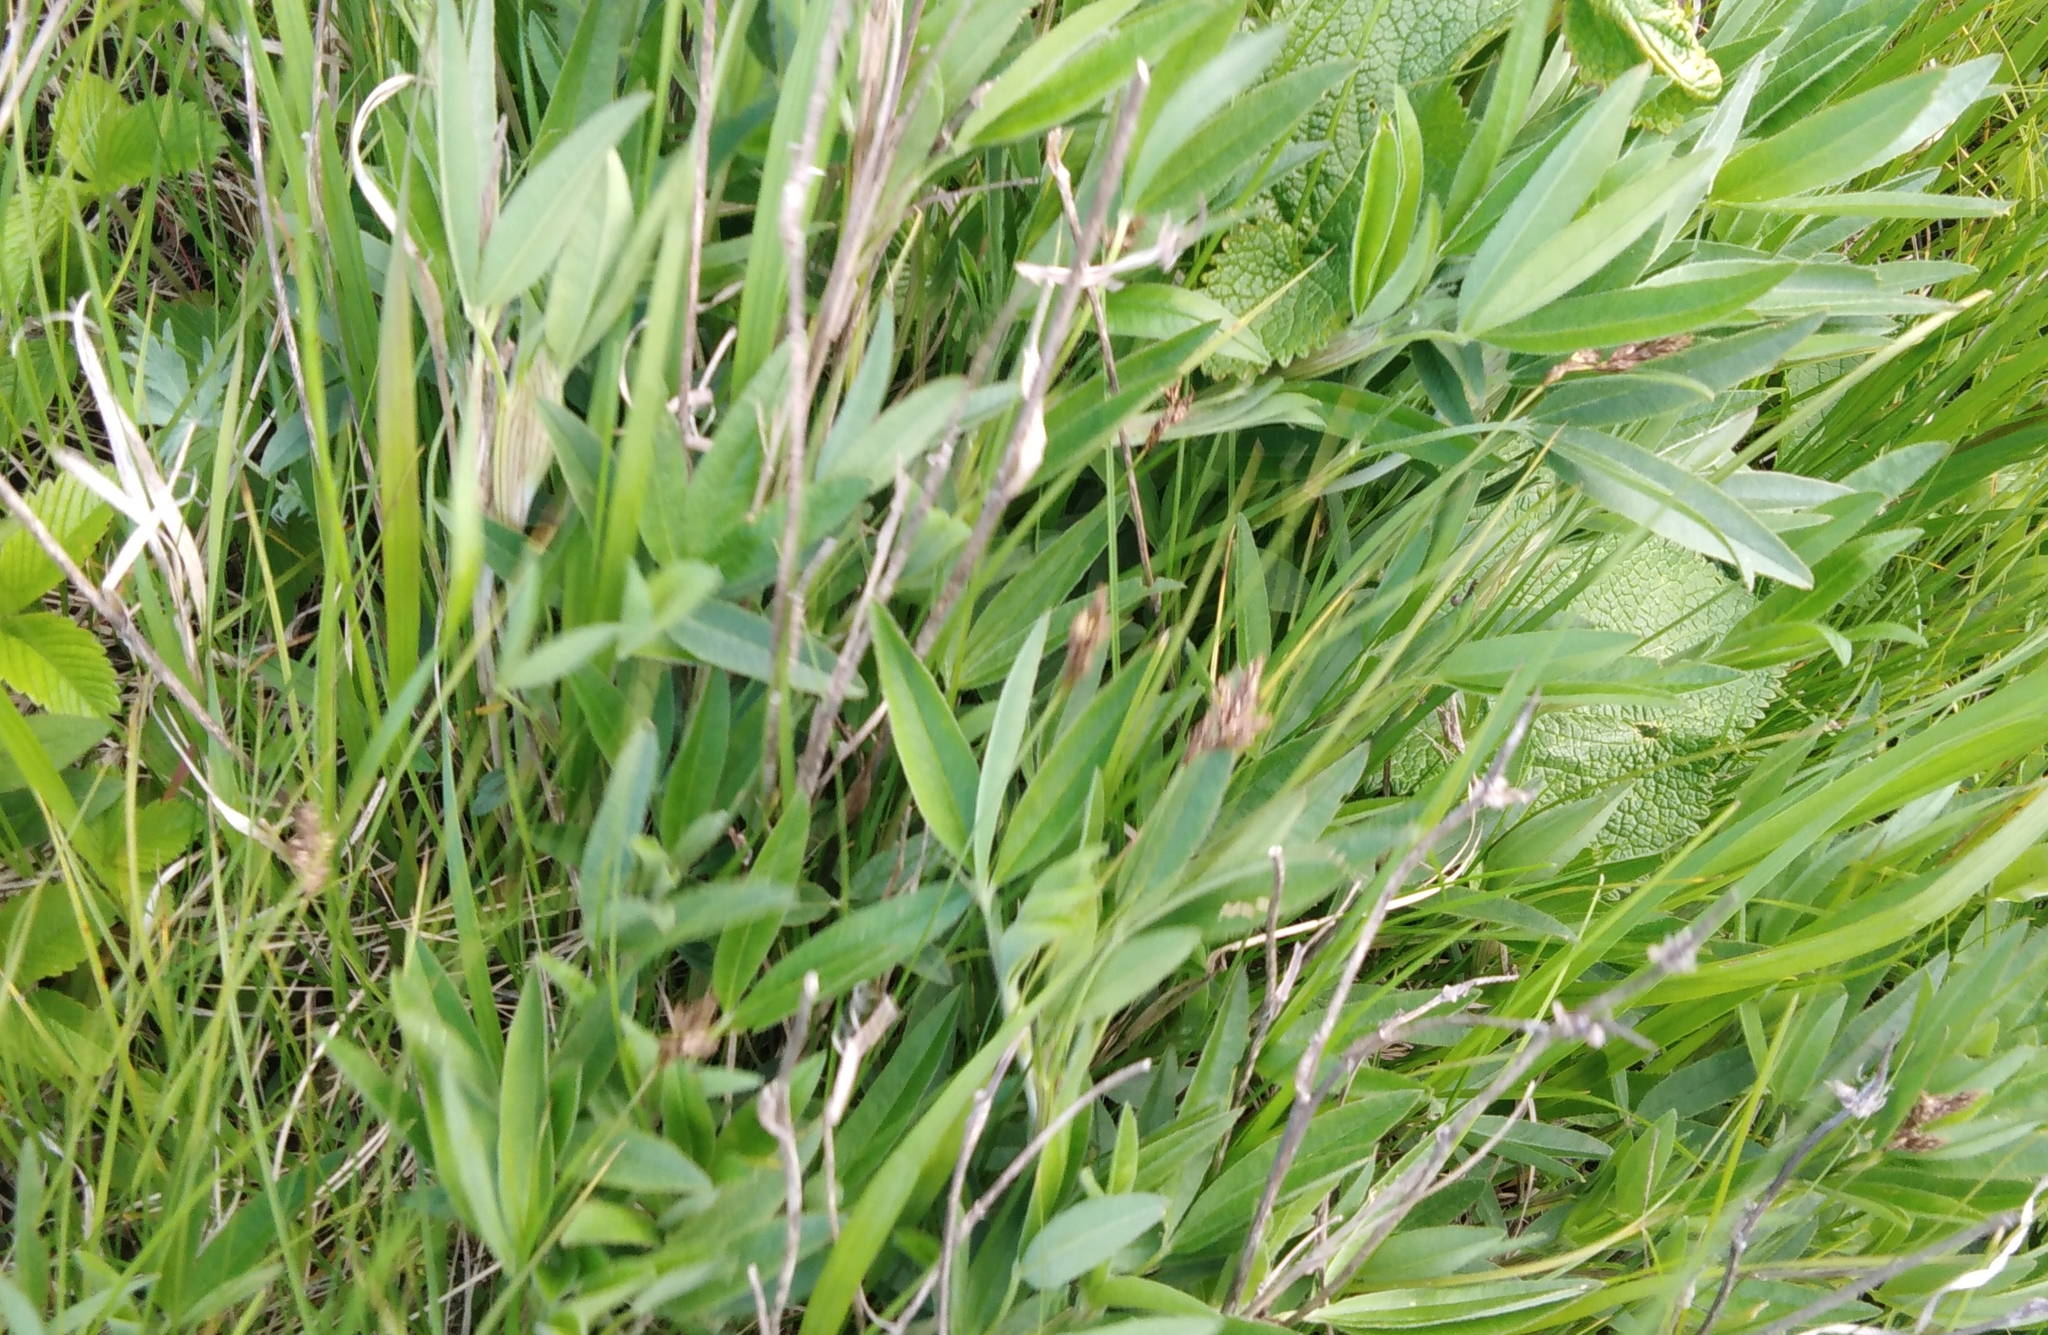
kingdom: Plantae
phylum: Tracheophyta
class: Magnoliopsida
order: Fabales
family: Fabaceae
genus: Trifolium
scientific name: Trifolium montanum
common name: Mountain clover
